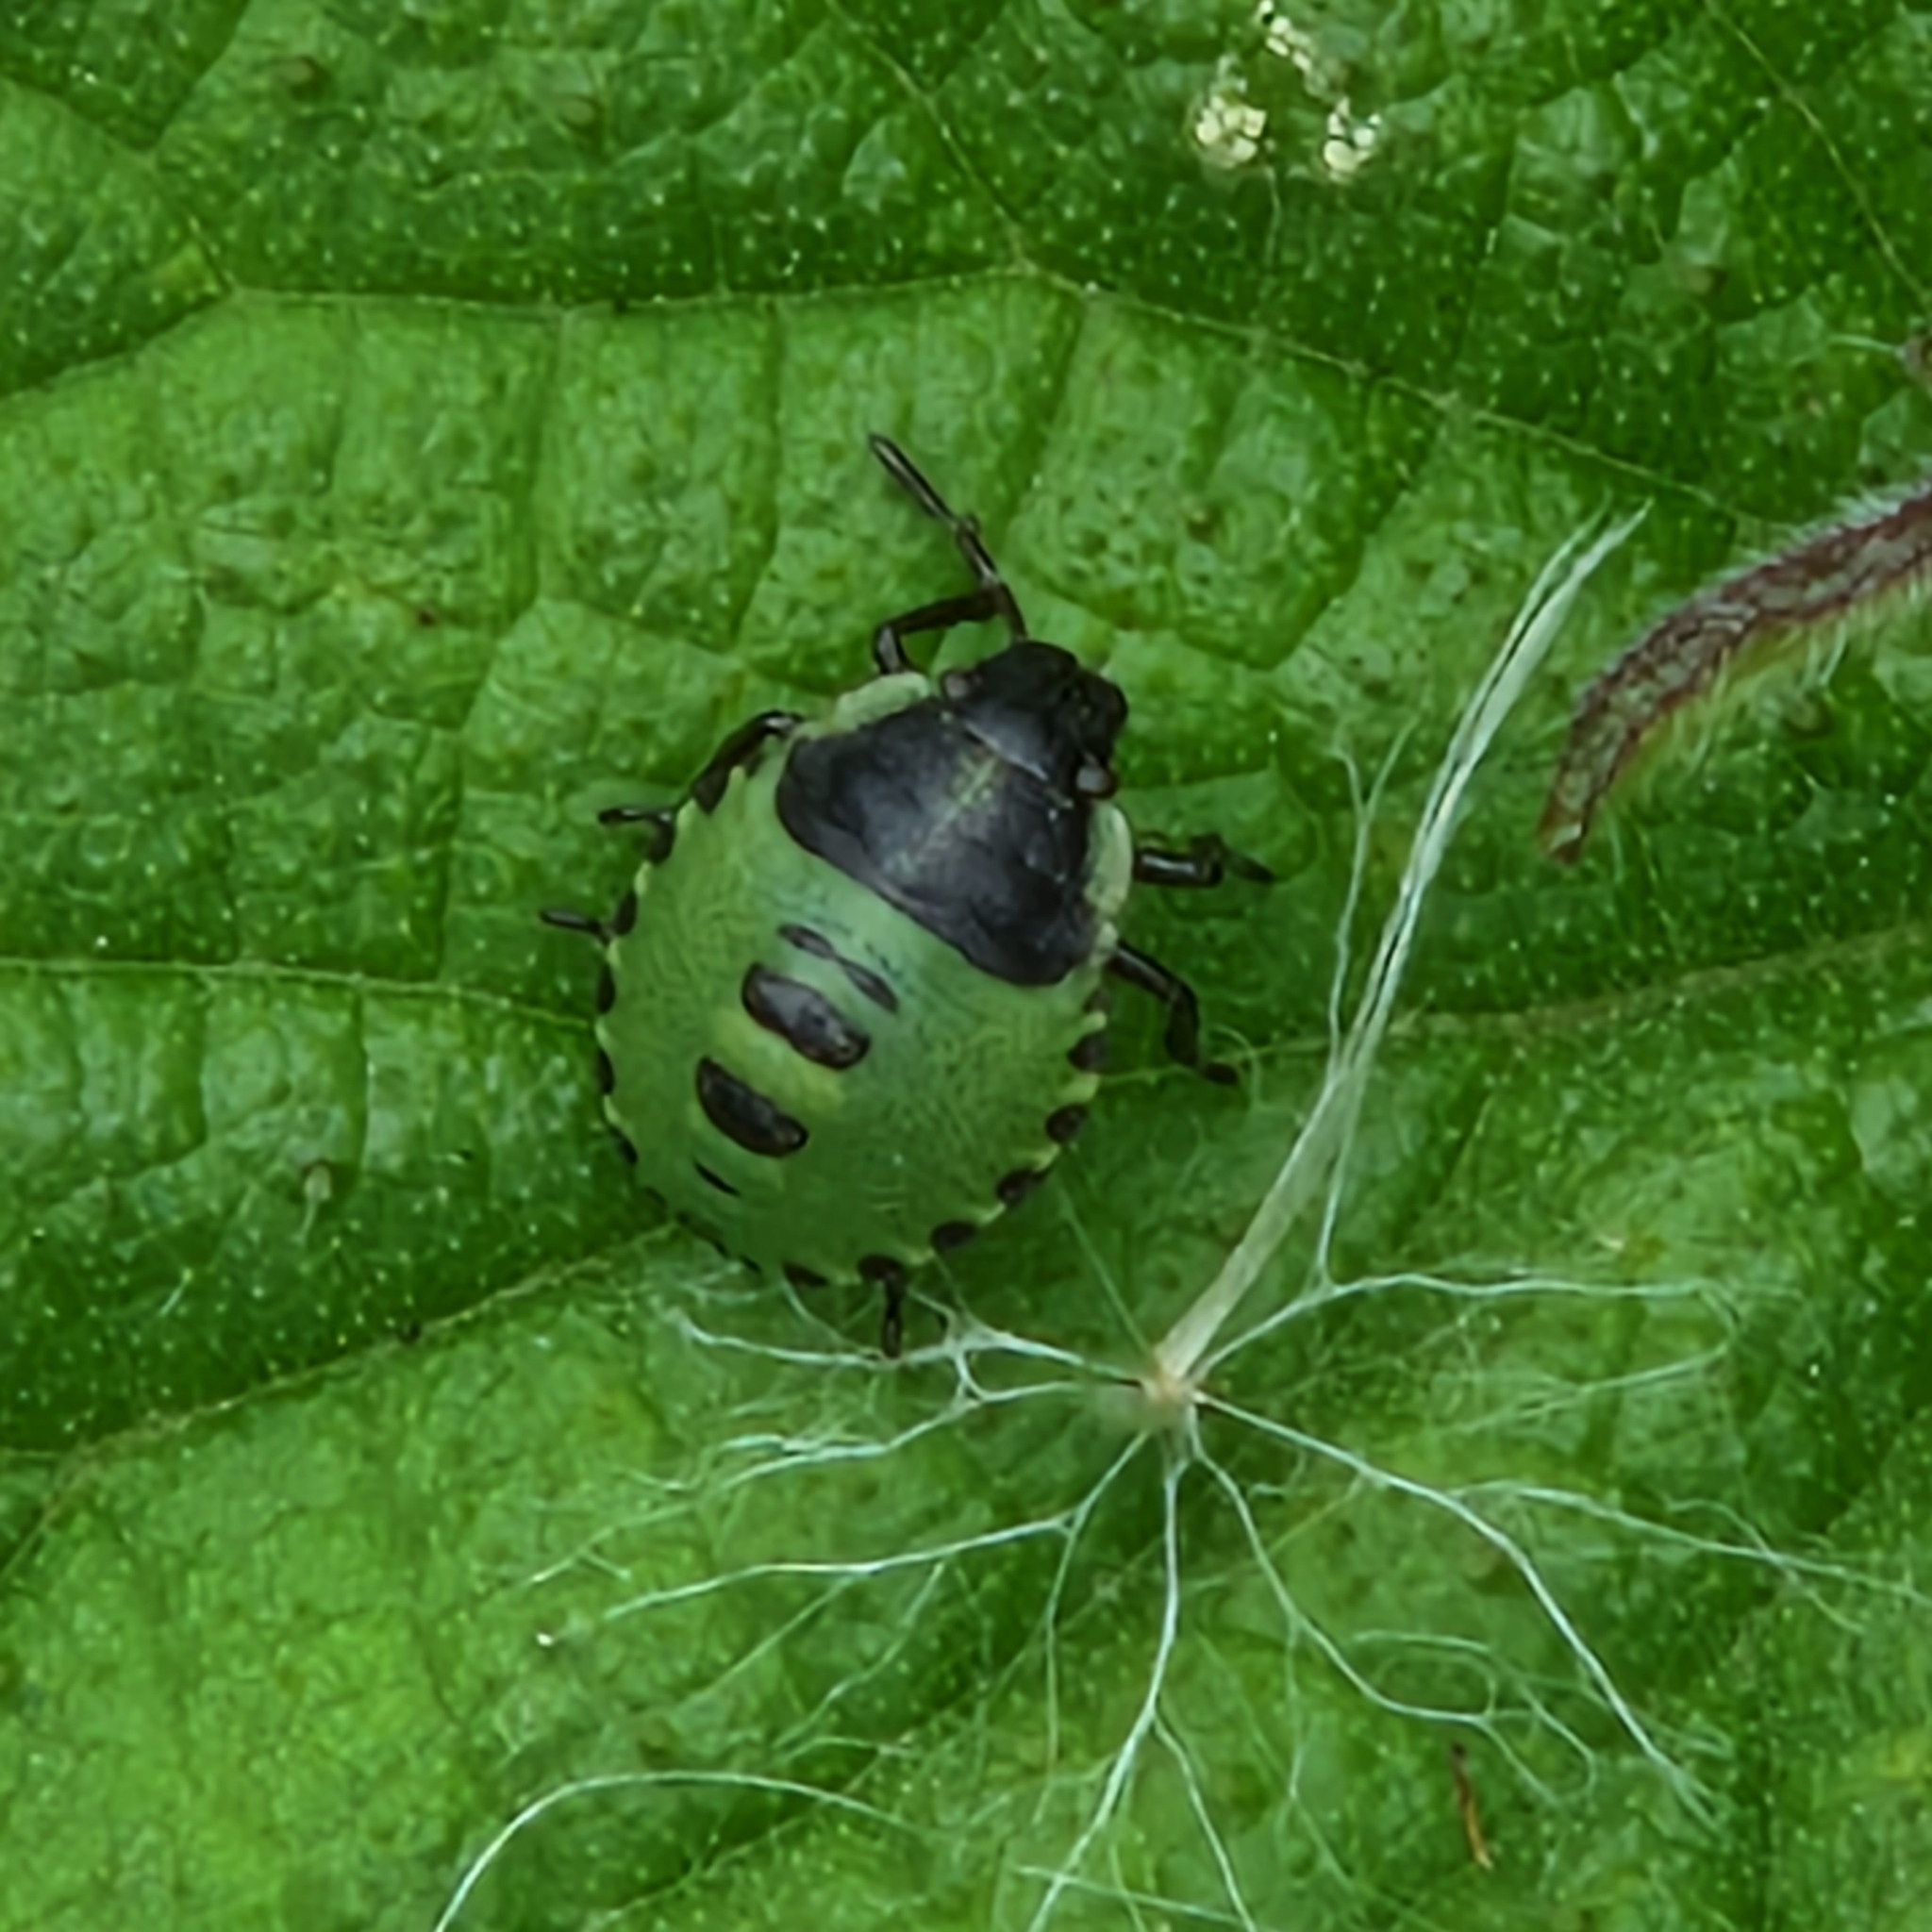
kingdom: Animalia
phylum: Arthropoda
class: Insecta
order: Hemiptera
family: Pentatomidae
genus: Palomena
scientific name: Palomena prasina
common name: Green shieldbug
